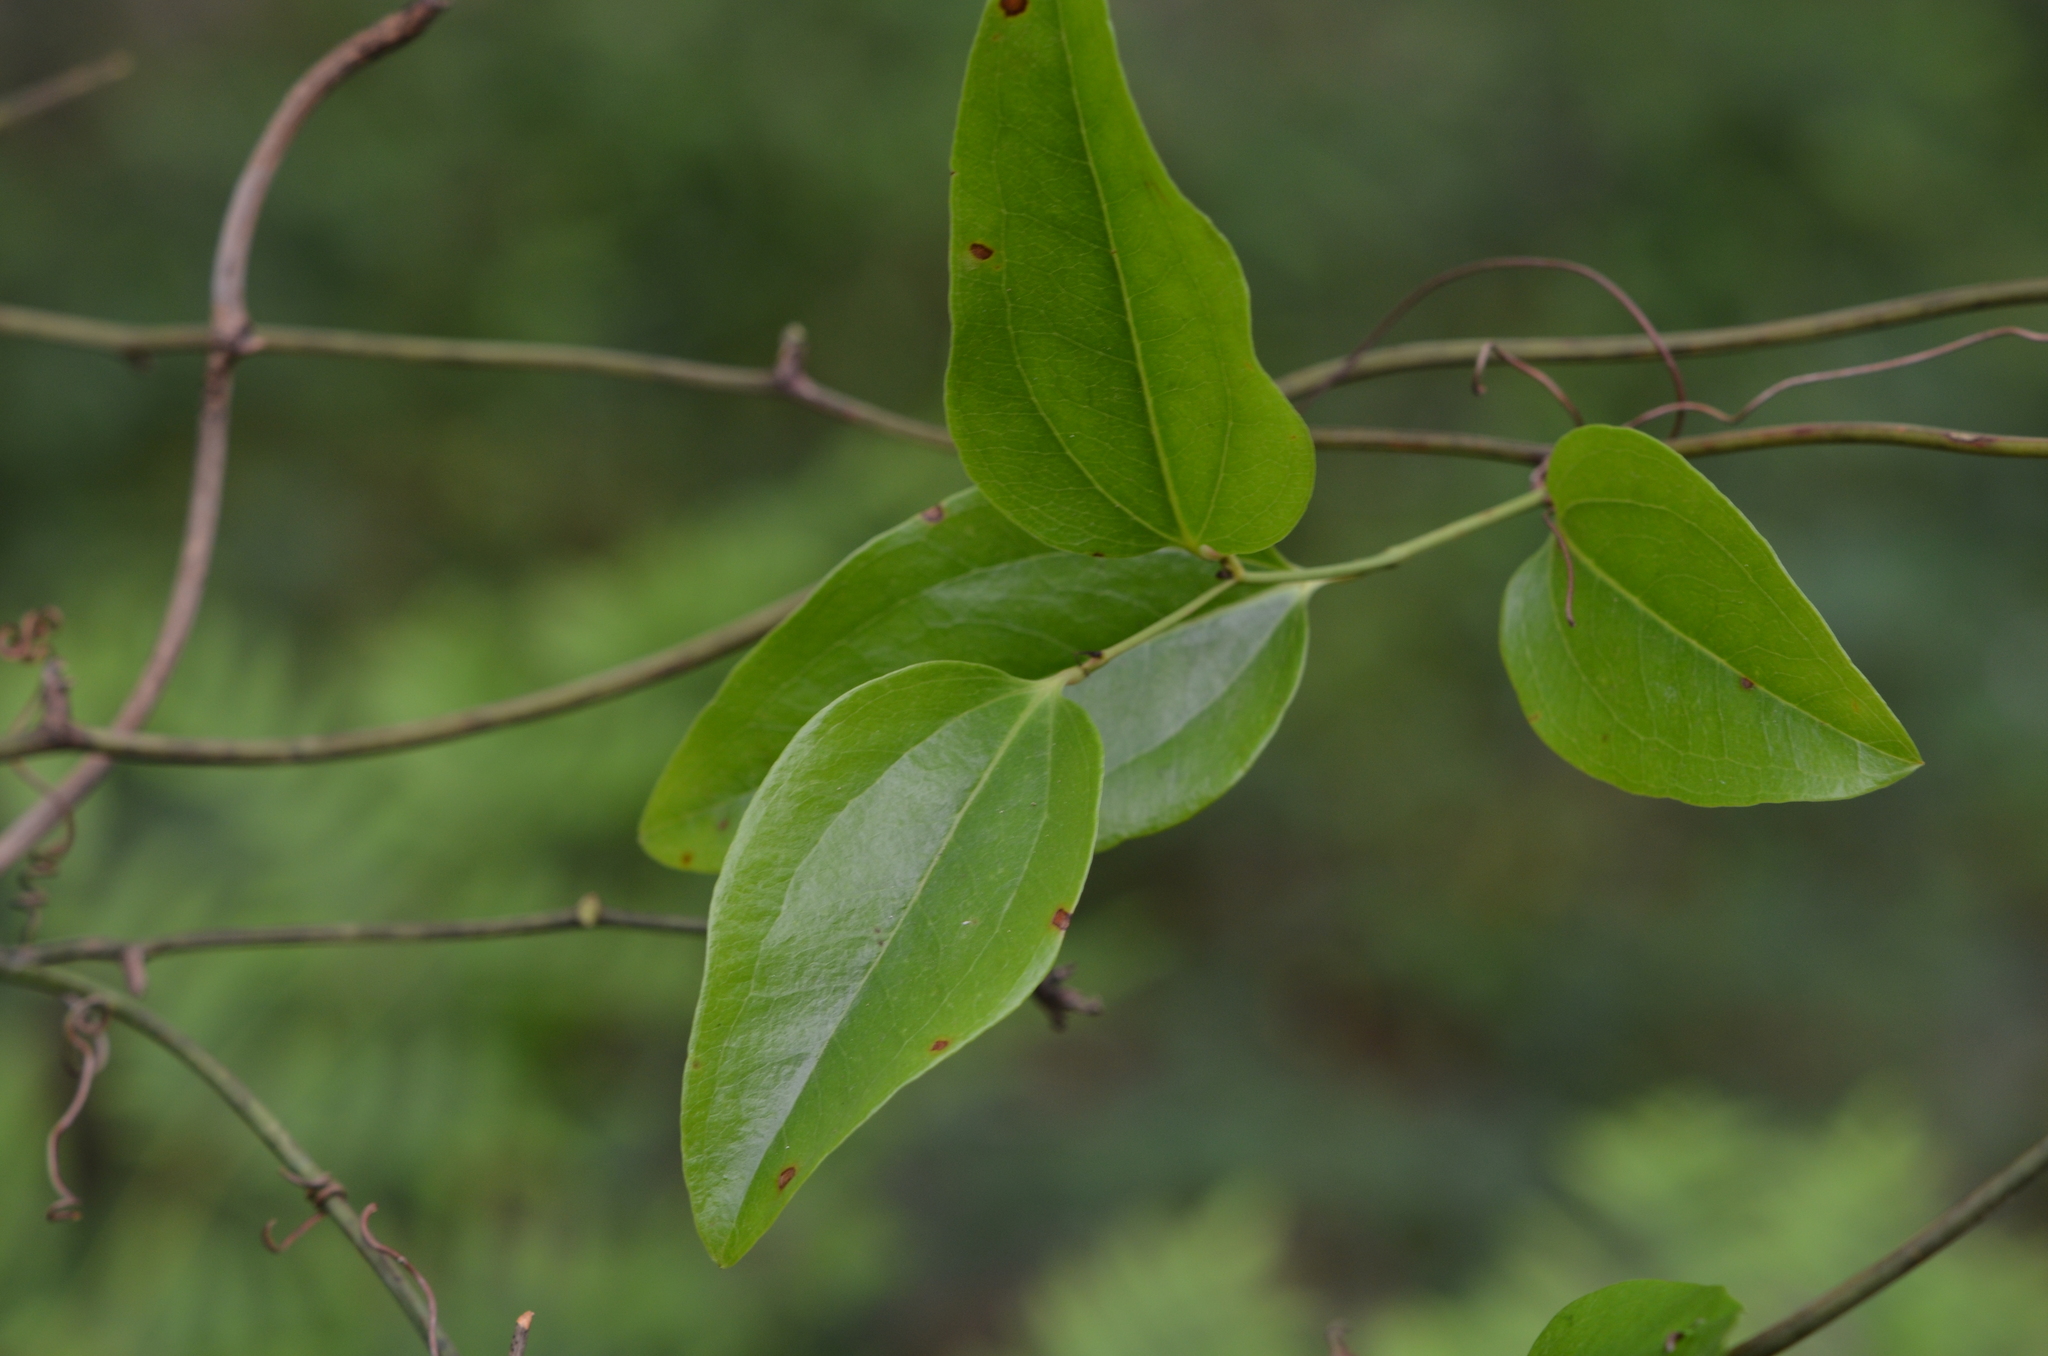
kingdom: Plantae
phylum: Tracheophyta
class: Liliopsida
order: Liliales
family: Smilacaceae
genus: Smilax
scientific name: Smilax walteri
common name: Coral greenbrier
